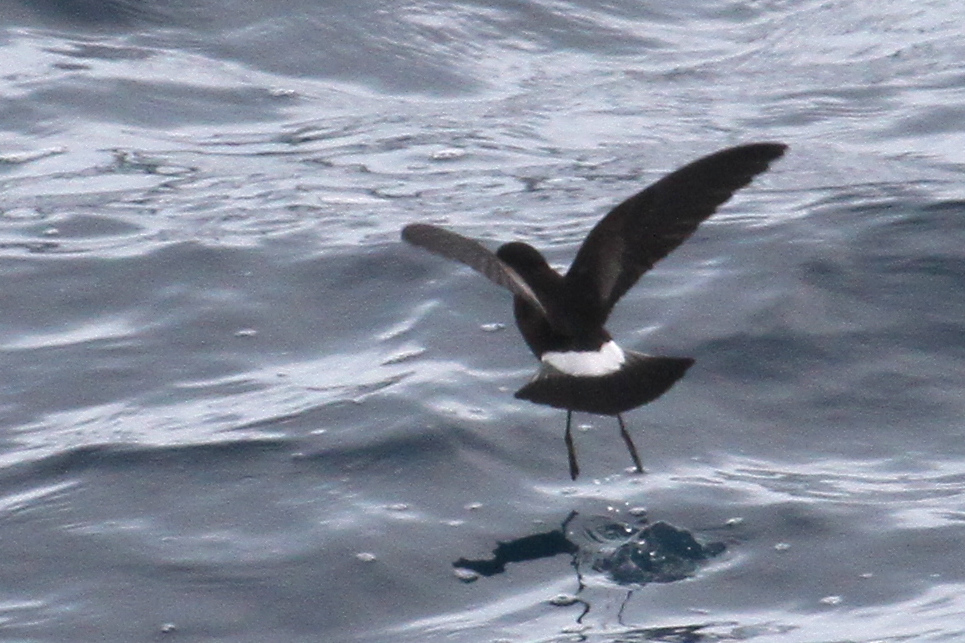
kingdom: Animalia
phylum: Chordata
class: Aves
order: Procellariiformes
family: Hydrobatidae
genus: Oceanites
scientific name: Oceanites oceanicus
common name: Wilson's storm petrel
